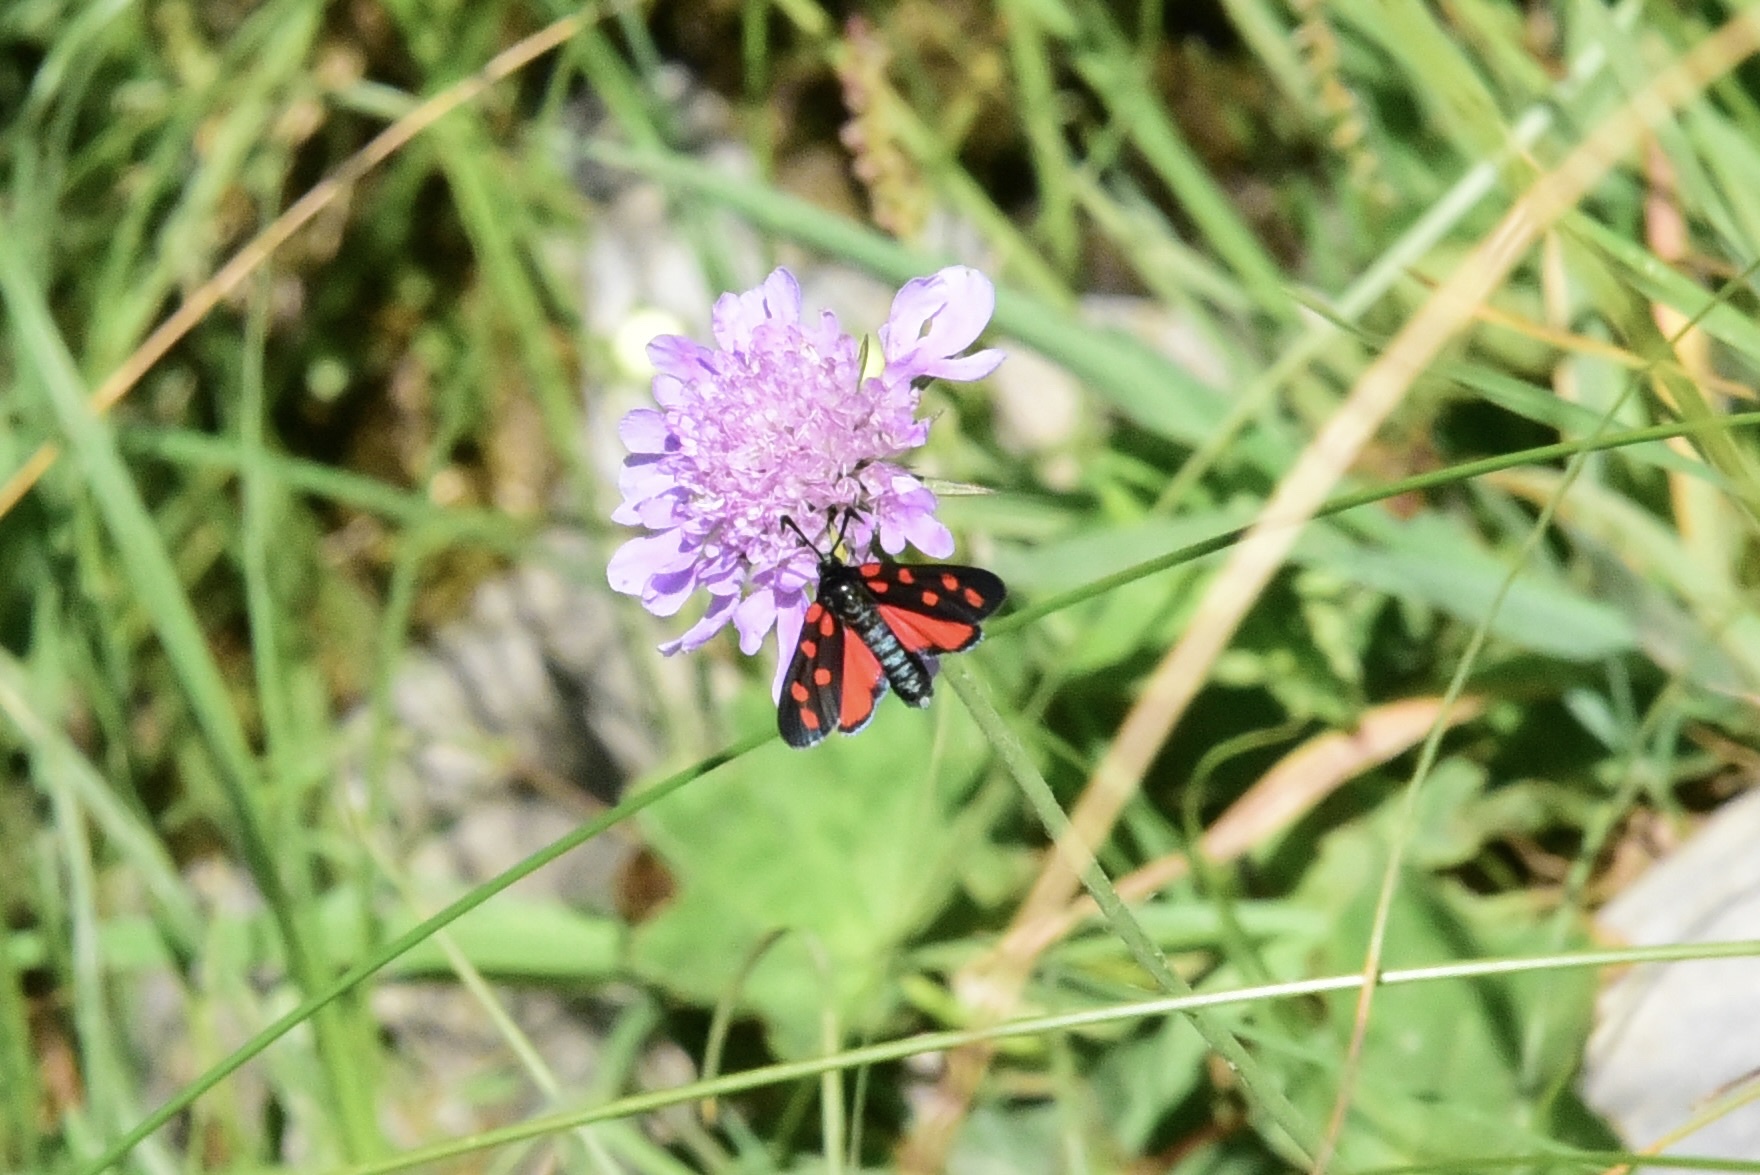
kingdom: Animalia
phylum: Arthropoda
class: Insecta
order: Lepidoptera
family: Zygaenidae
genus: Zygaena
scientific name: Zygaena transalpina
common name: Southern six spot burnet
